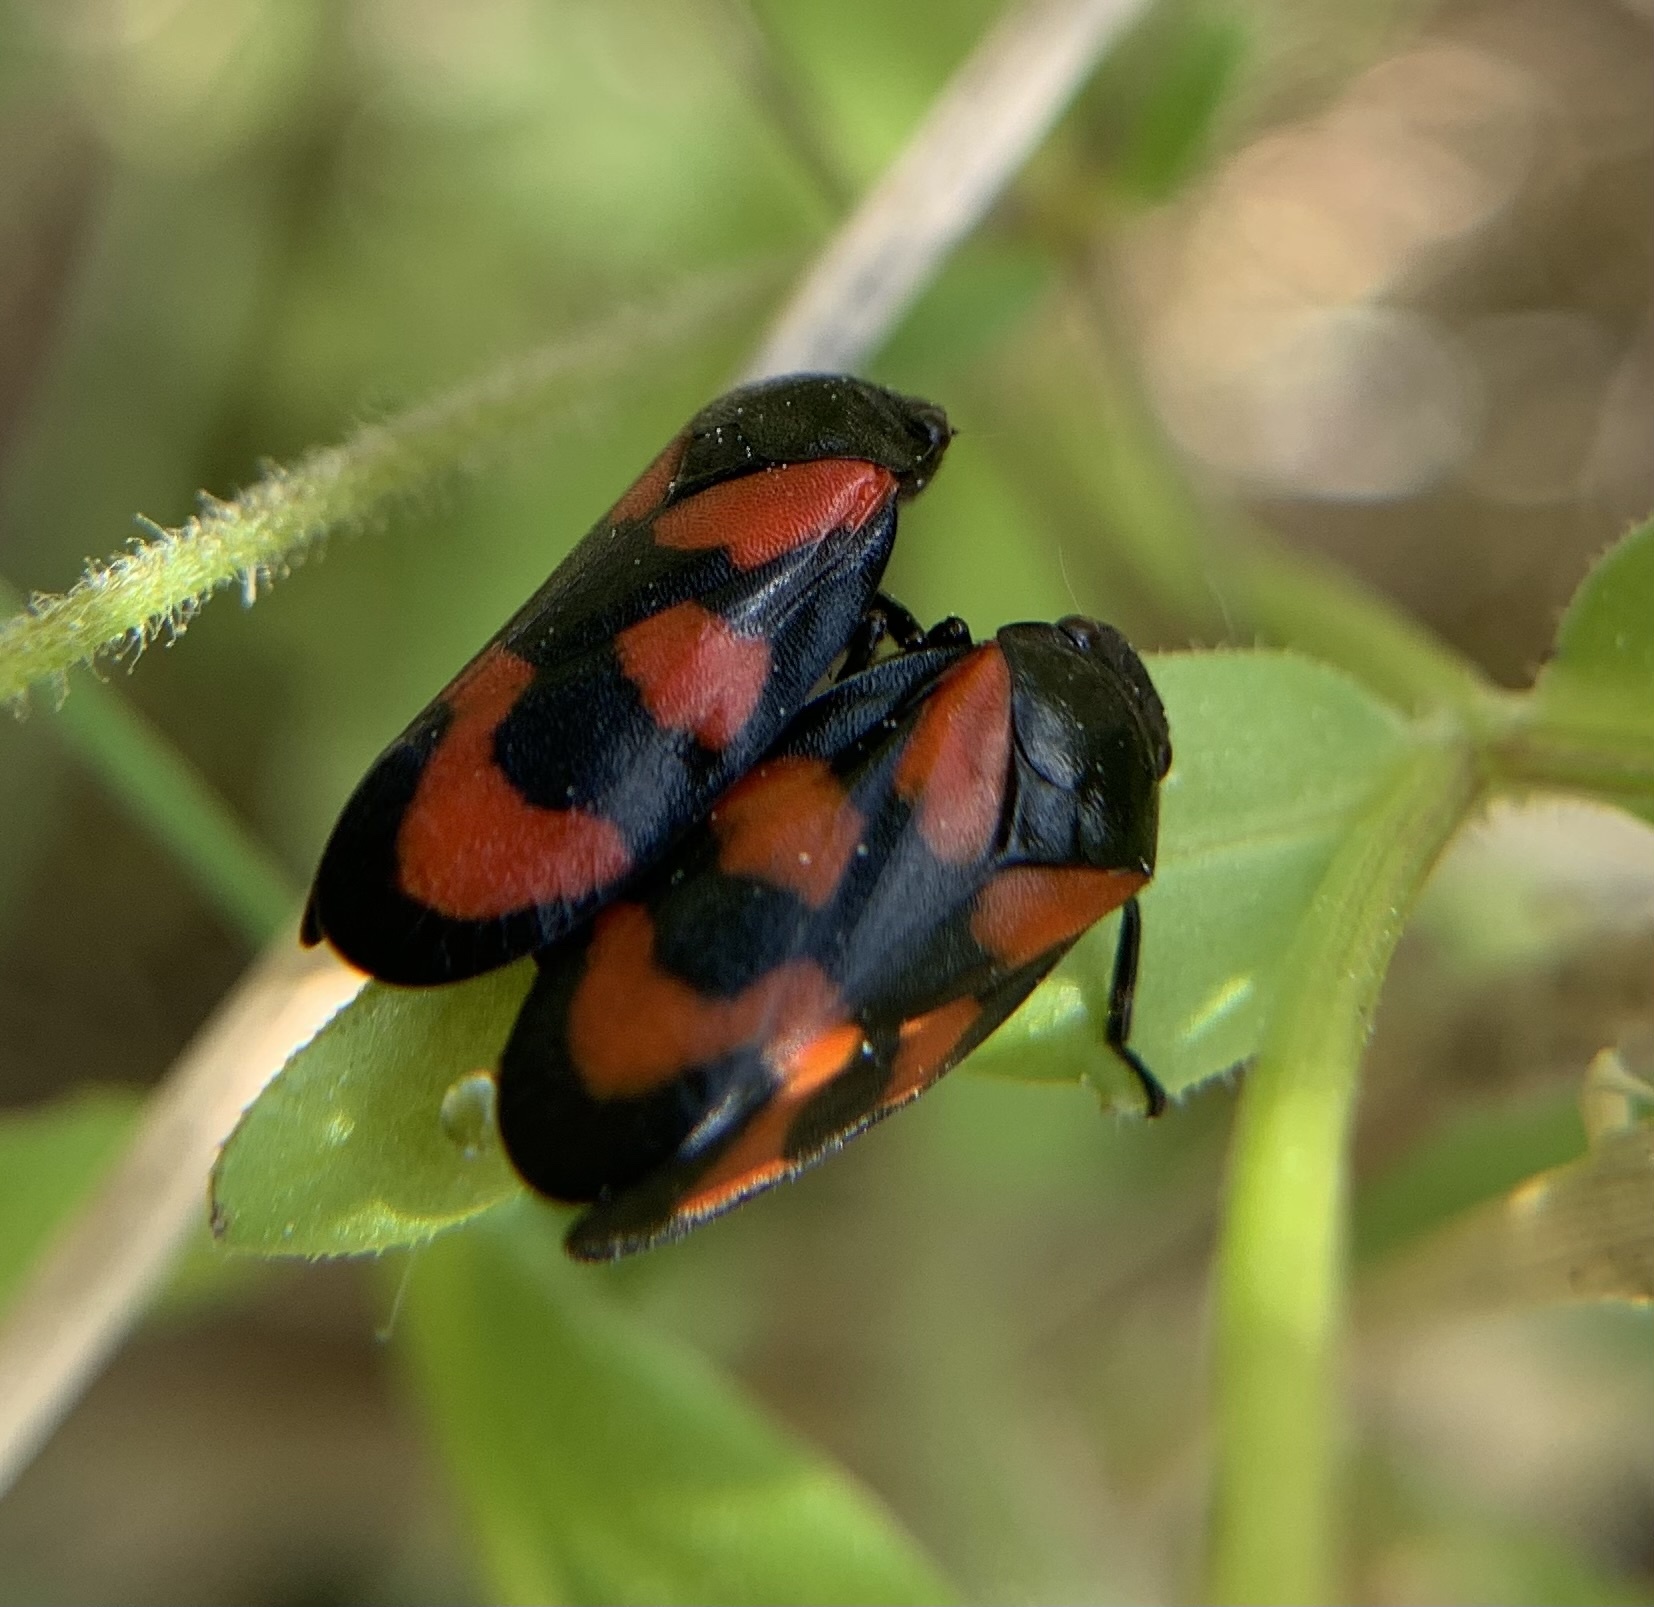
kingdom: Animalia
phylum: Arthropoda
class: Insecta
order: Hemiptera
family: Cercopidae
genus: Cercopis
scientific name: Cercopis vulnerata
